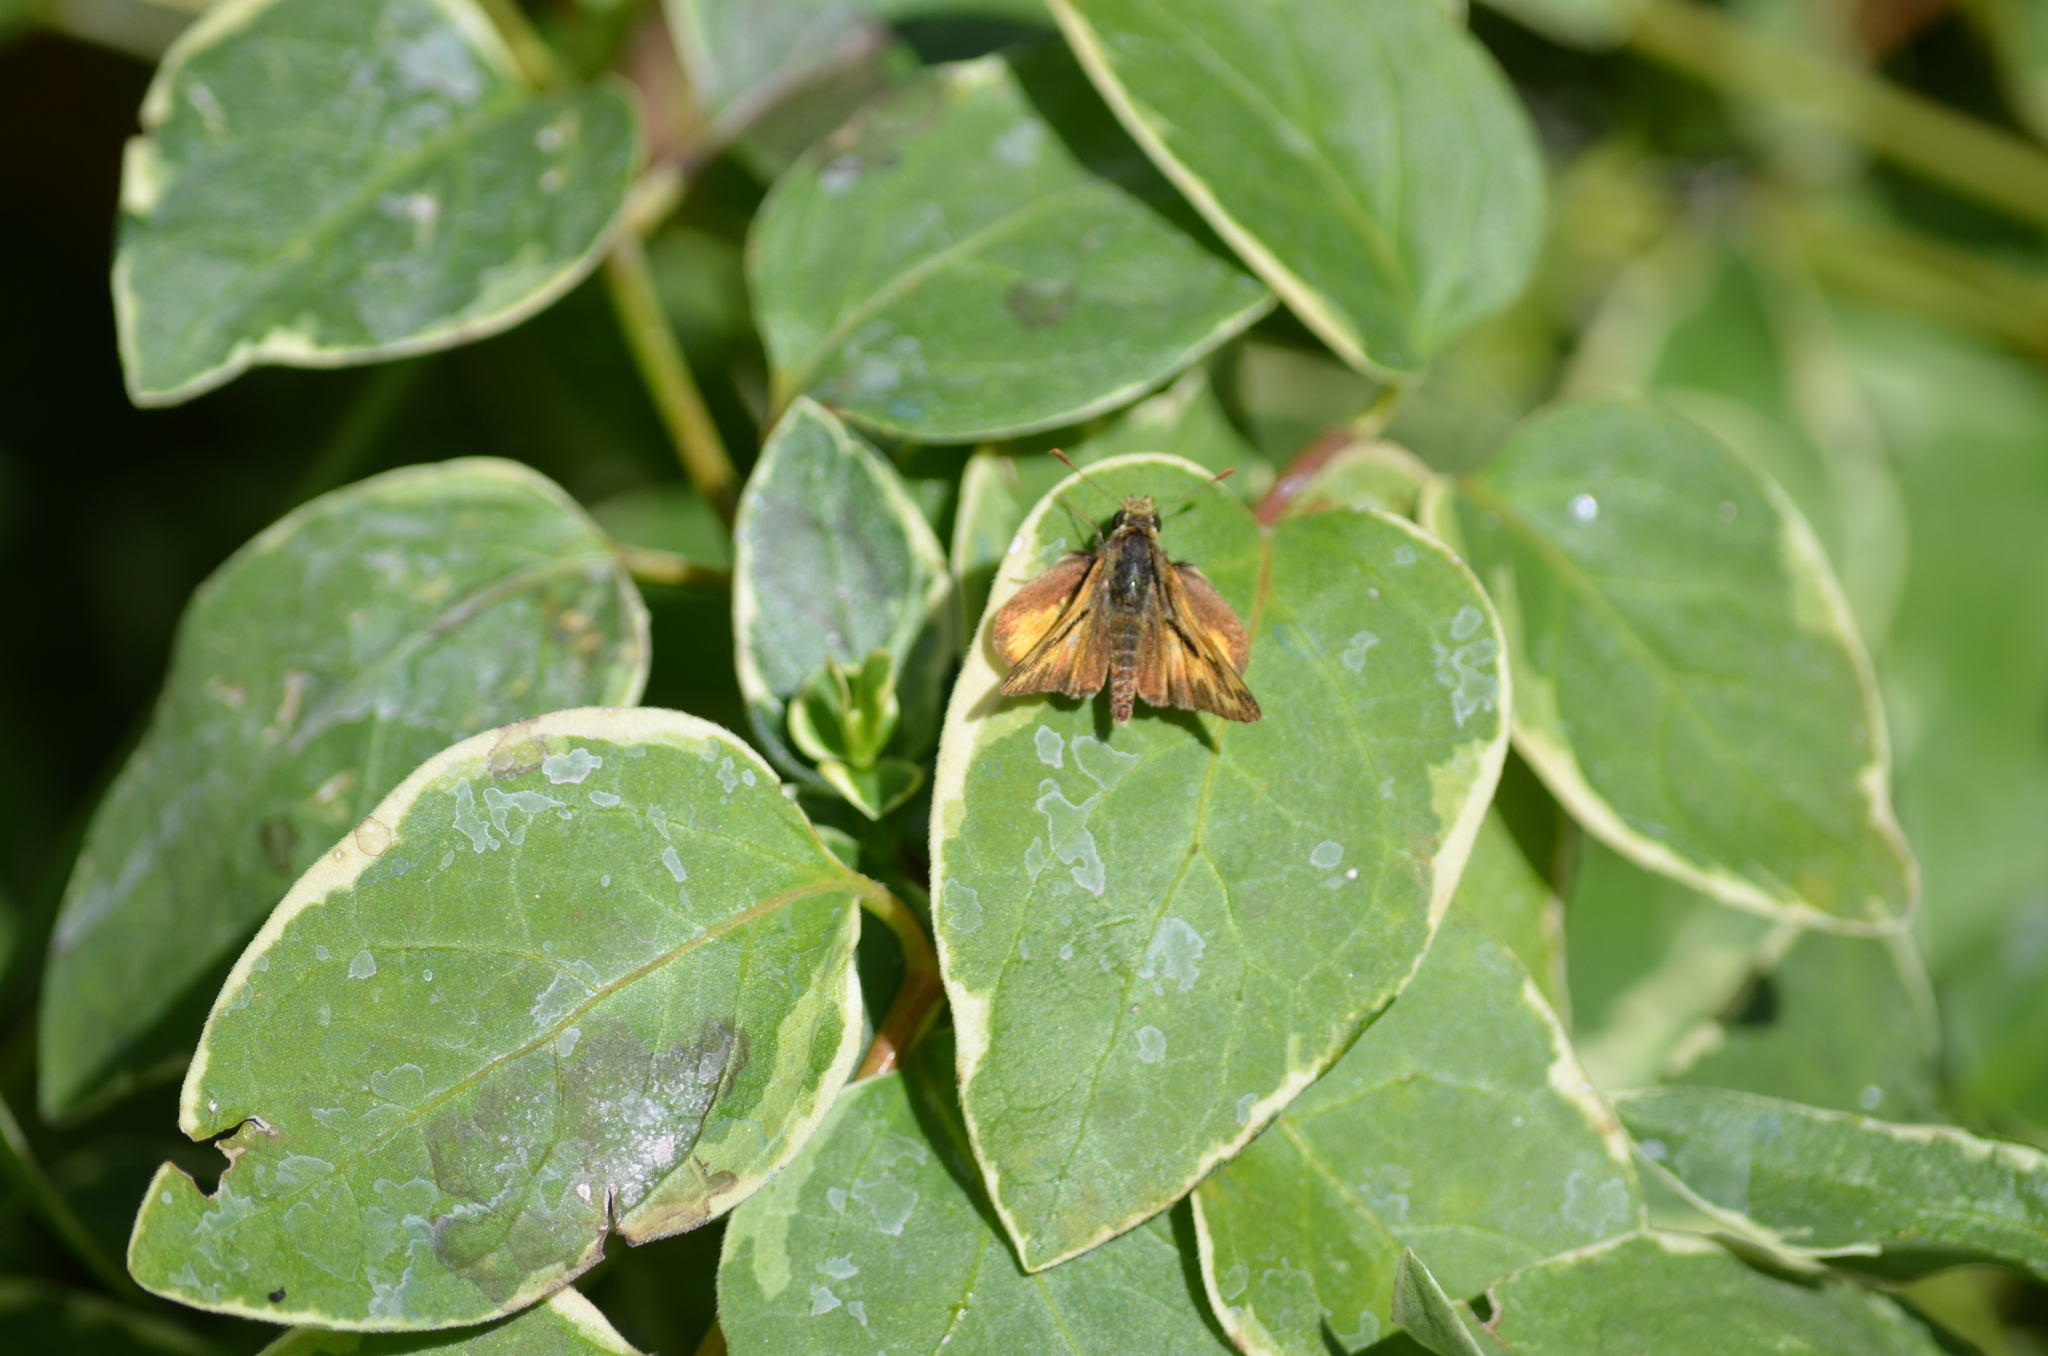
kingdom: Animalia
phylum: Arthropoda
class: Insecta
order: Lepidoptera
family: Hesperiidae
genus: Ochlodes
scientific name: Ochlodes sylvanoides
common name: Woodland skipper
